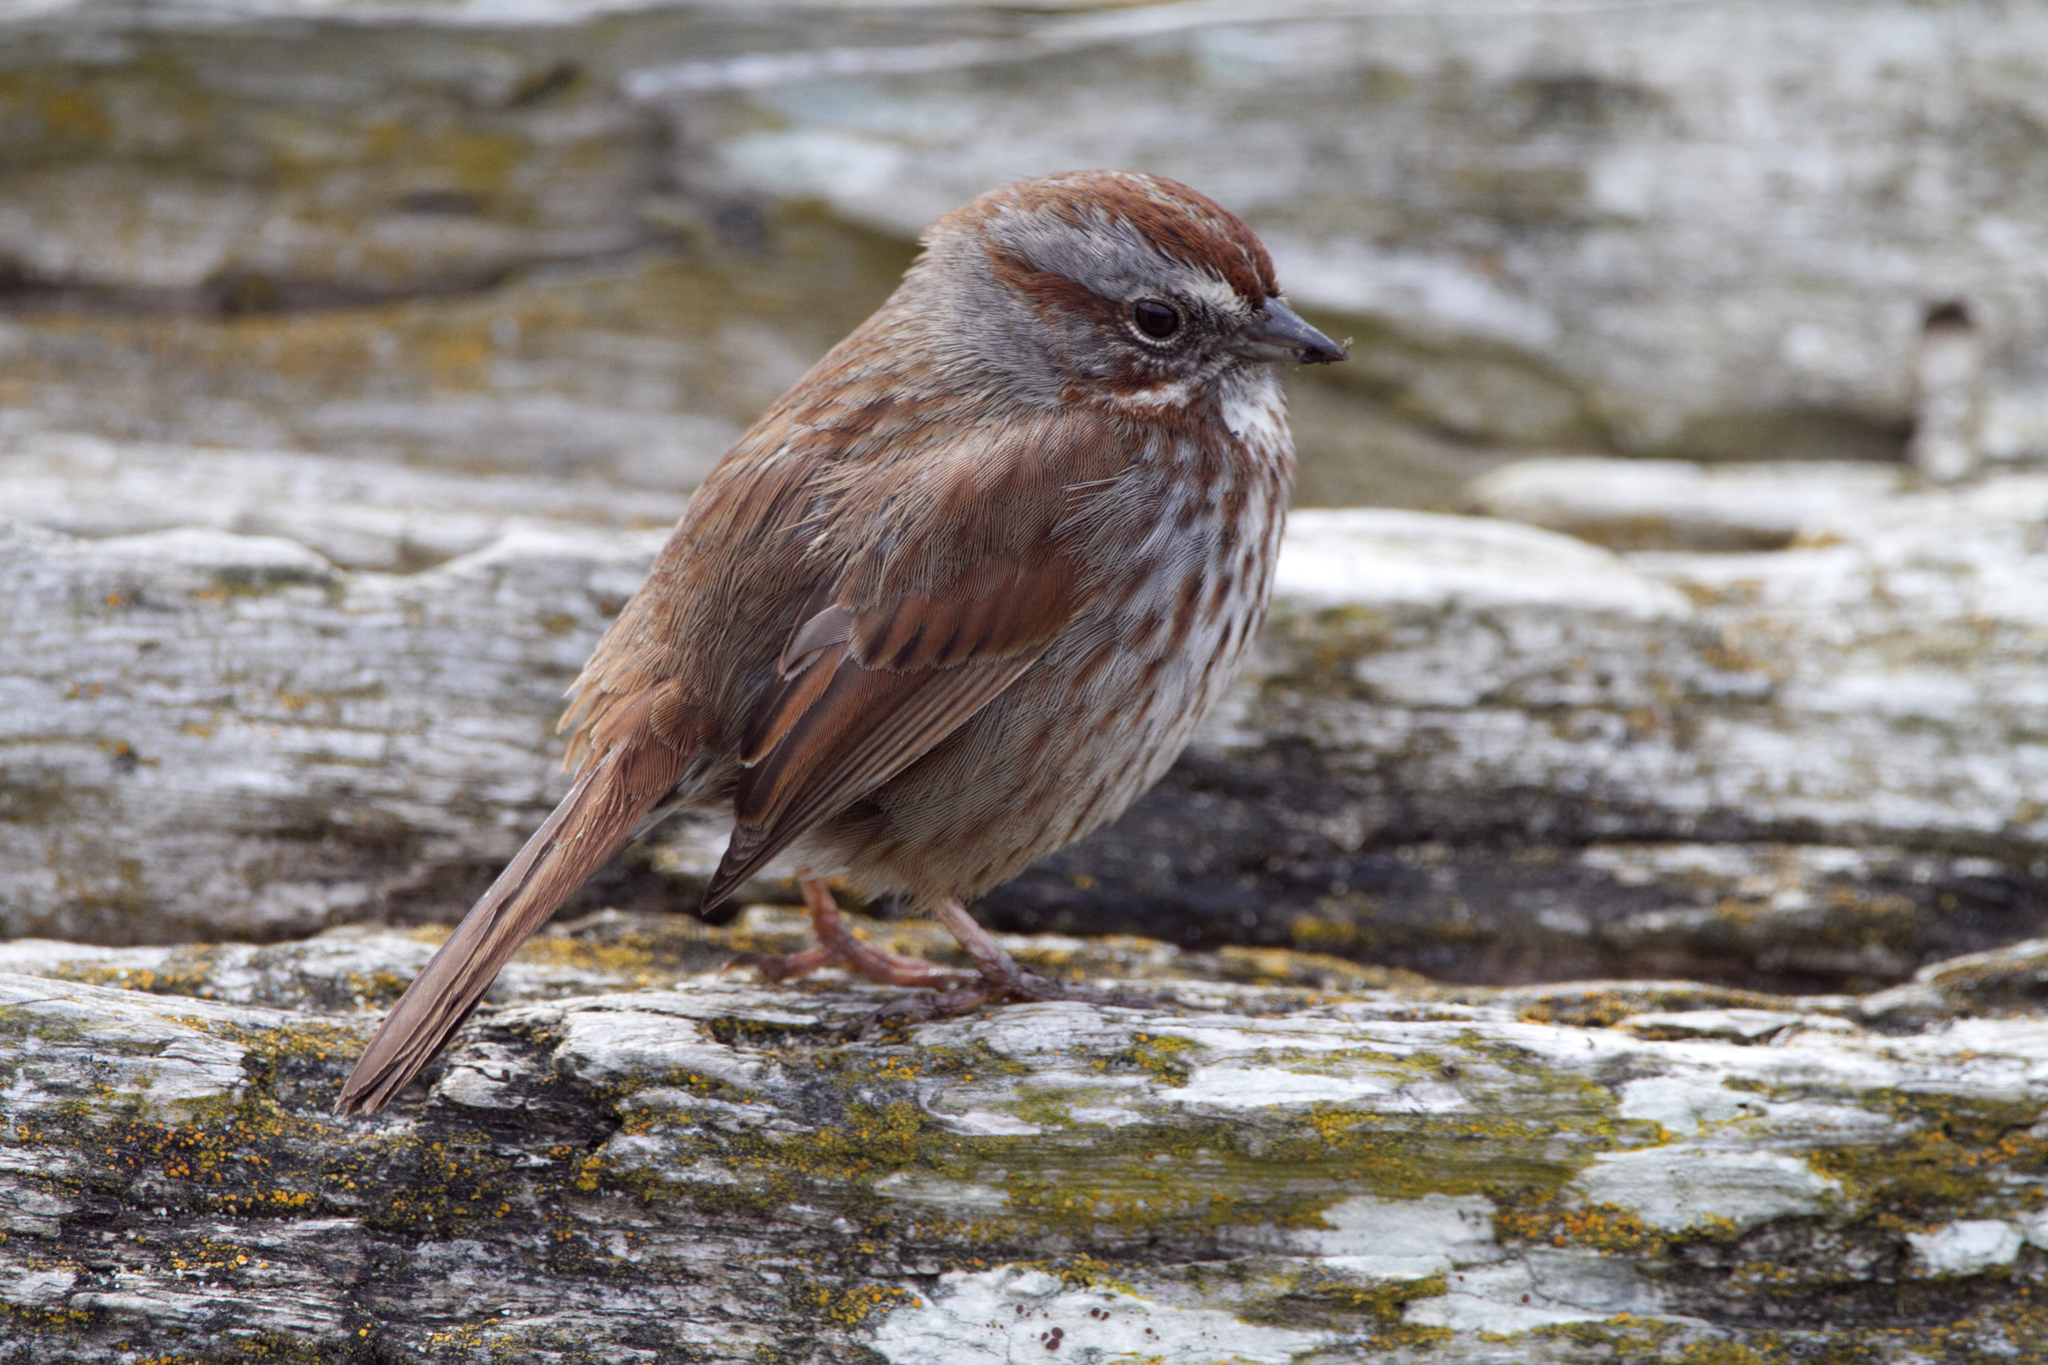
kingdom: Animalia
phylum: Chordata
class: Aves
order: Passeriformes
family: Passerellidae
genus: Melospiza
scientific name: Melospiza melodia
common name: Song sparrow
